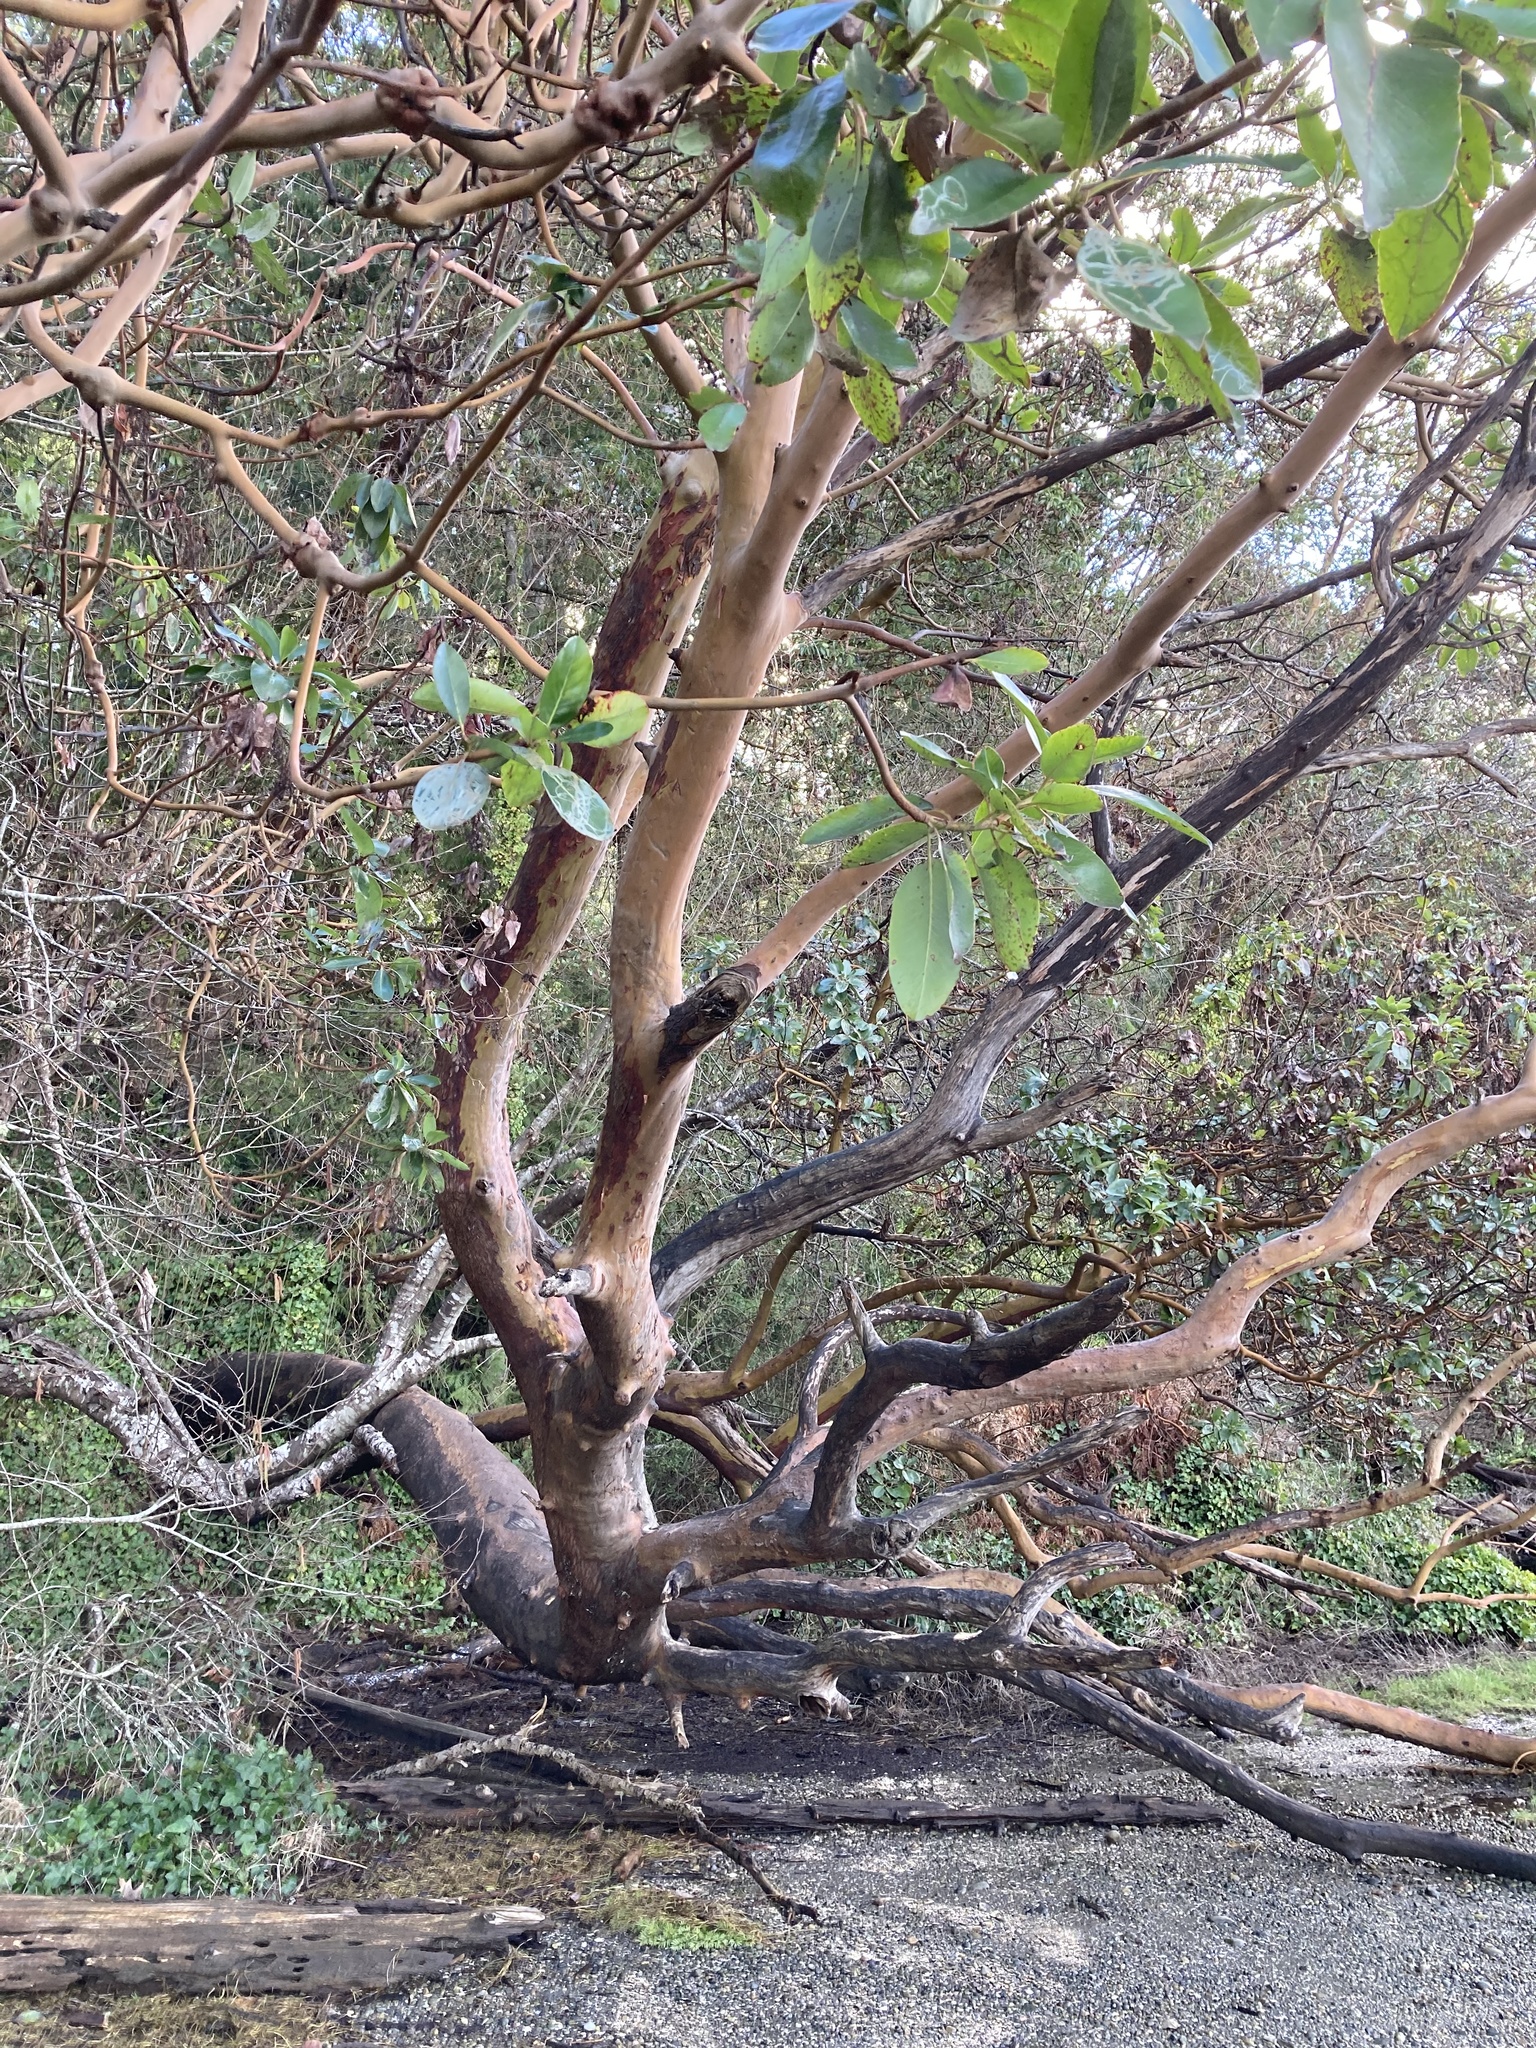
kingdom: Plantae
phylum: Tracheophyta
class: Magnoliopsida
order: Ericales
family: Ericaceae
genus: Arbutus
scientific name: Arbutus menziesii
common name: Pacific madrone
